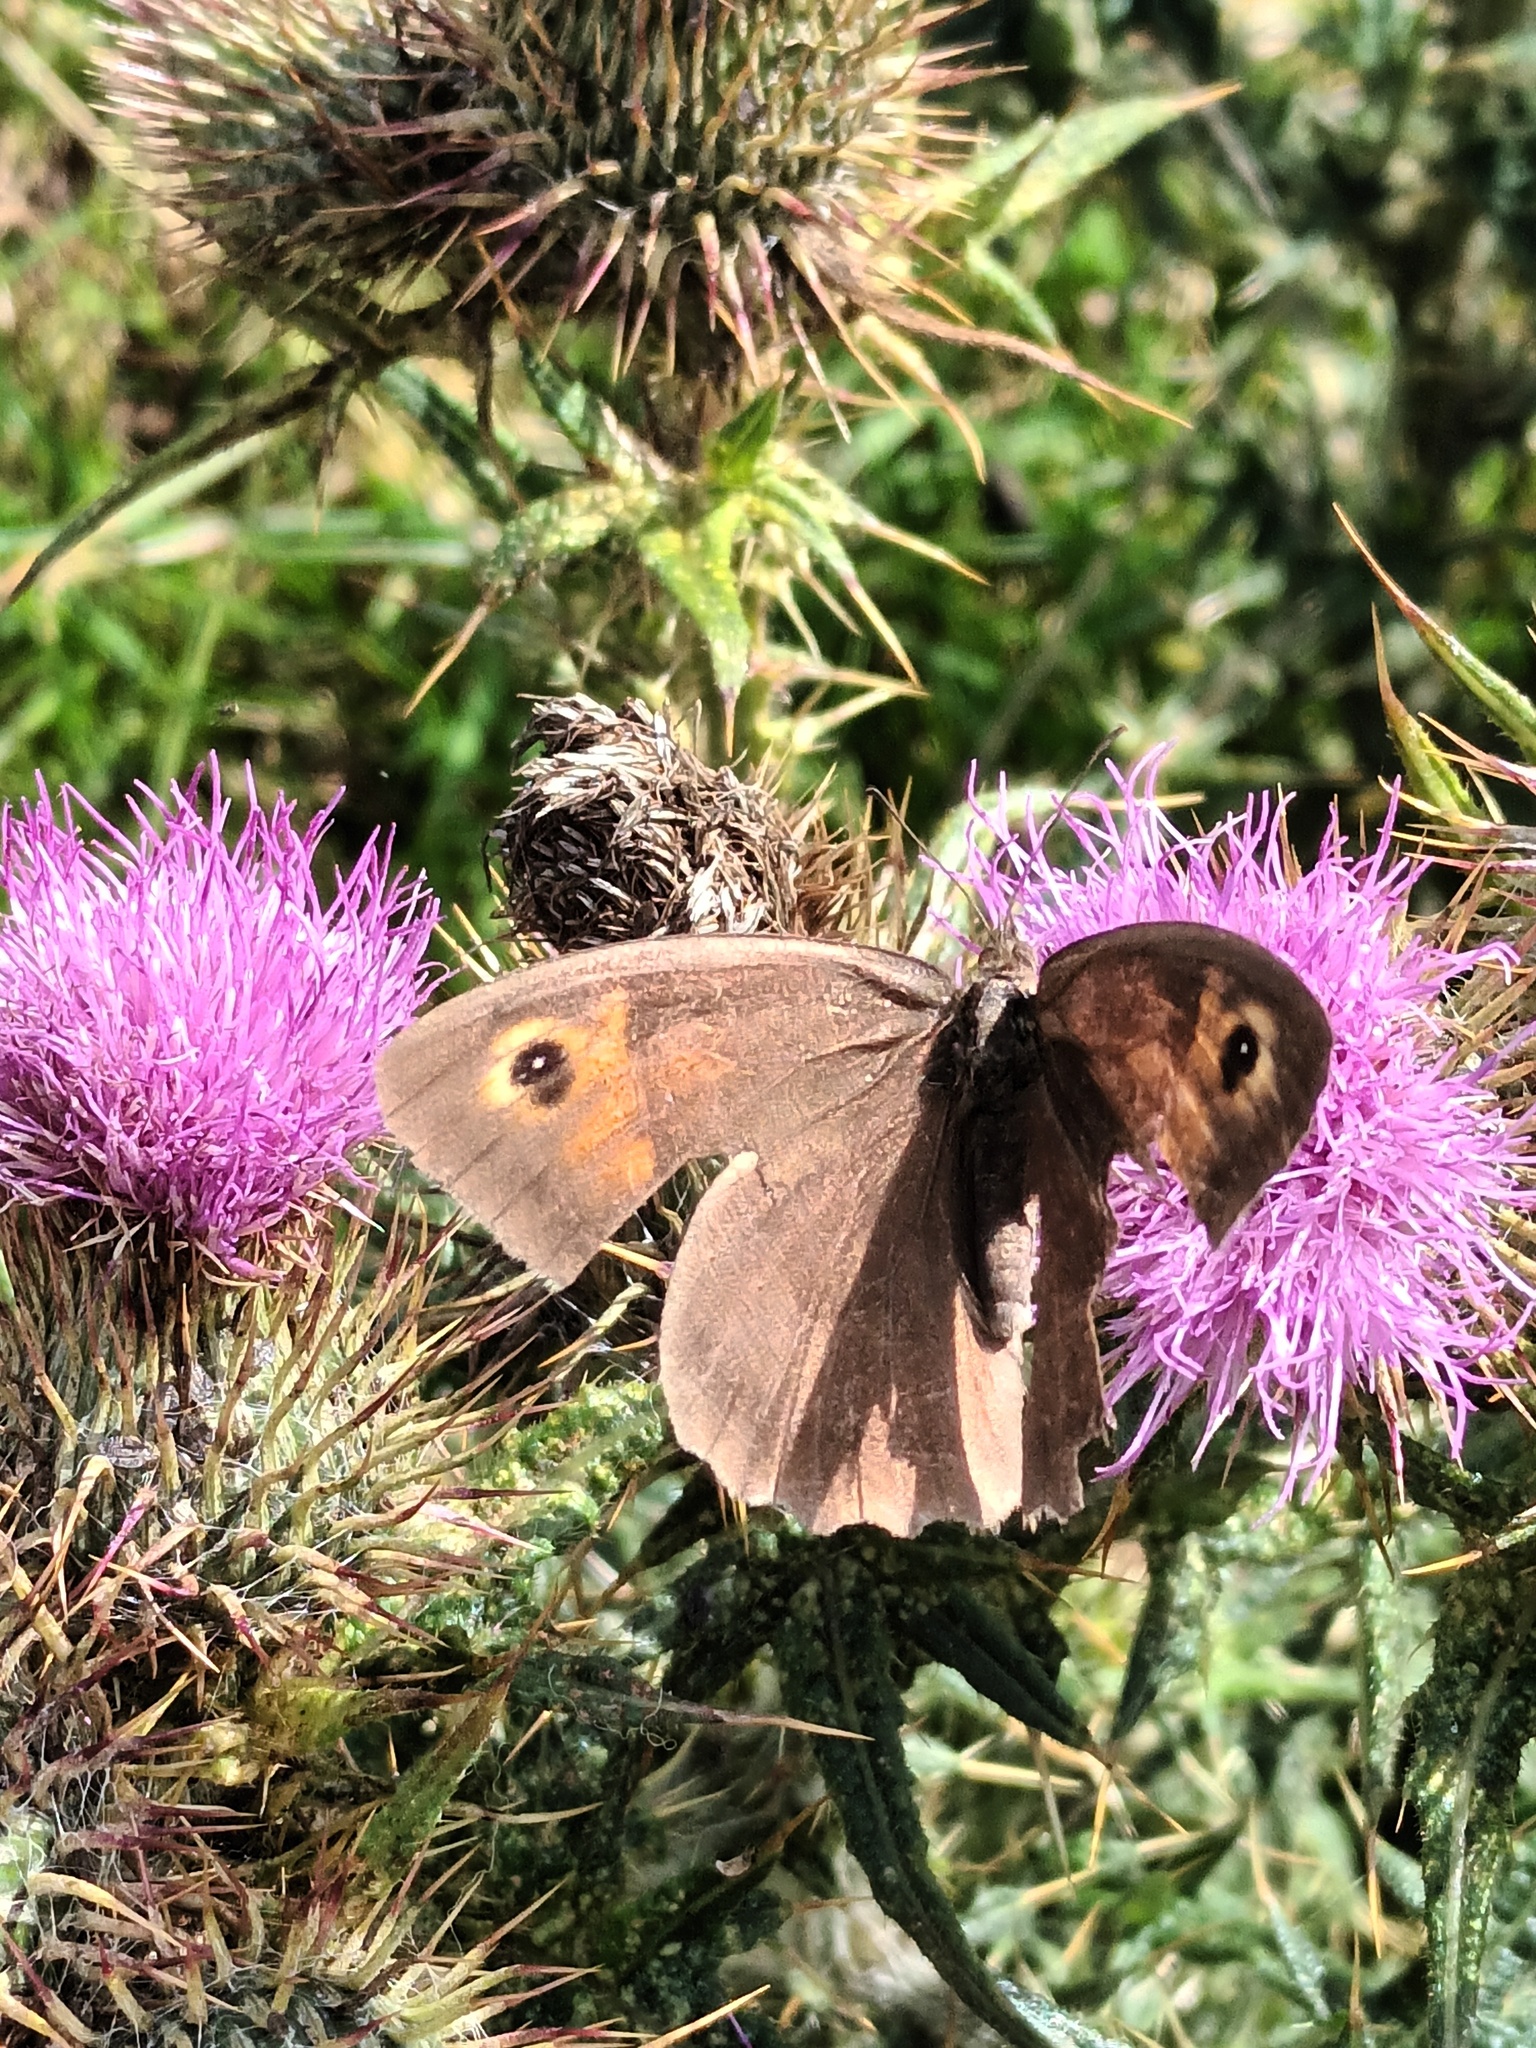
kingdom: Animalia
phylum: Arthropoda
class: Insecta
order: Lepidoptera
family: Nymphalidae
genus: Maniola
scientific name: Maniola jurtina
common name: Meadow brown
